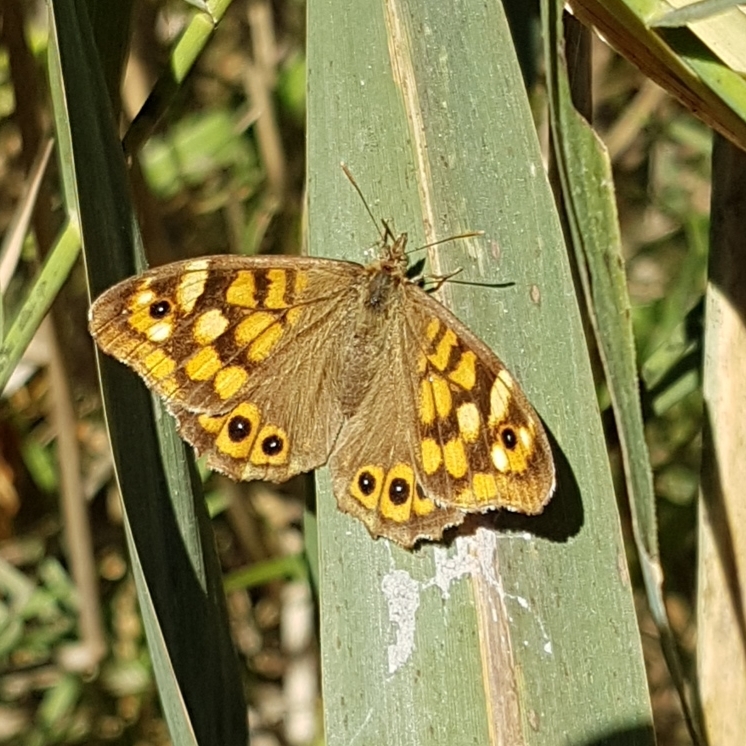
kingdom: Animalia
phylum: Arthropoda
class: Insecta
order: Lepidoptera
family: Nymphalidae
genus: Pararge
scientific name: Pararge aegeria
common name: Speckled wood
